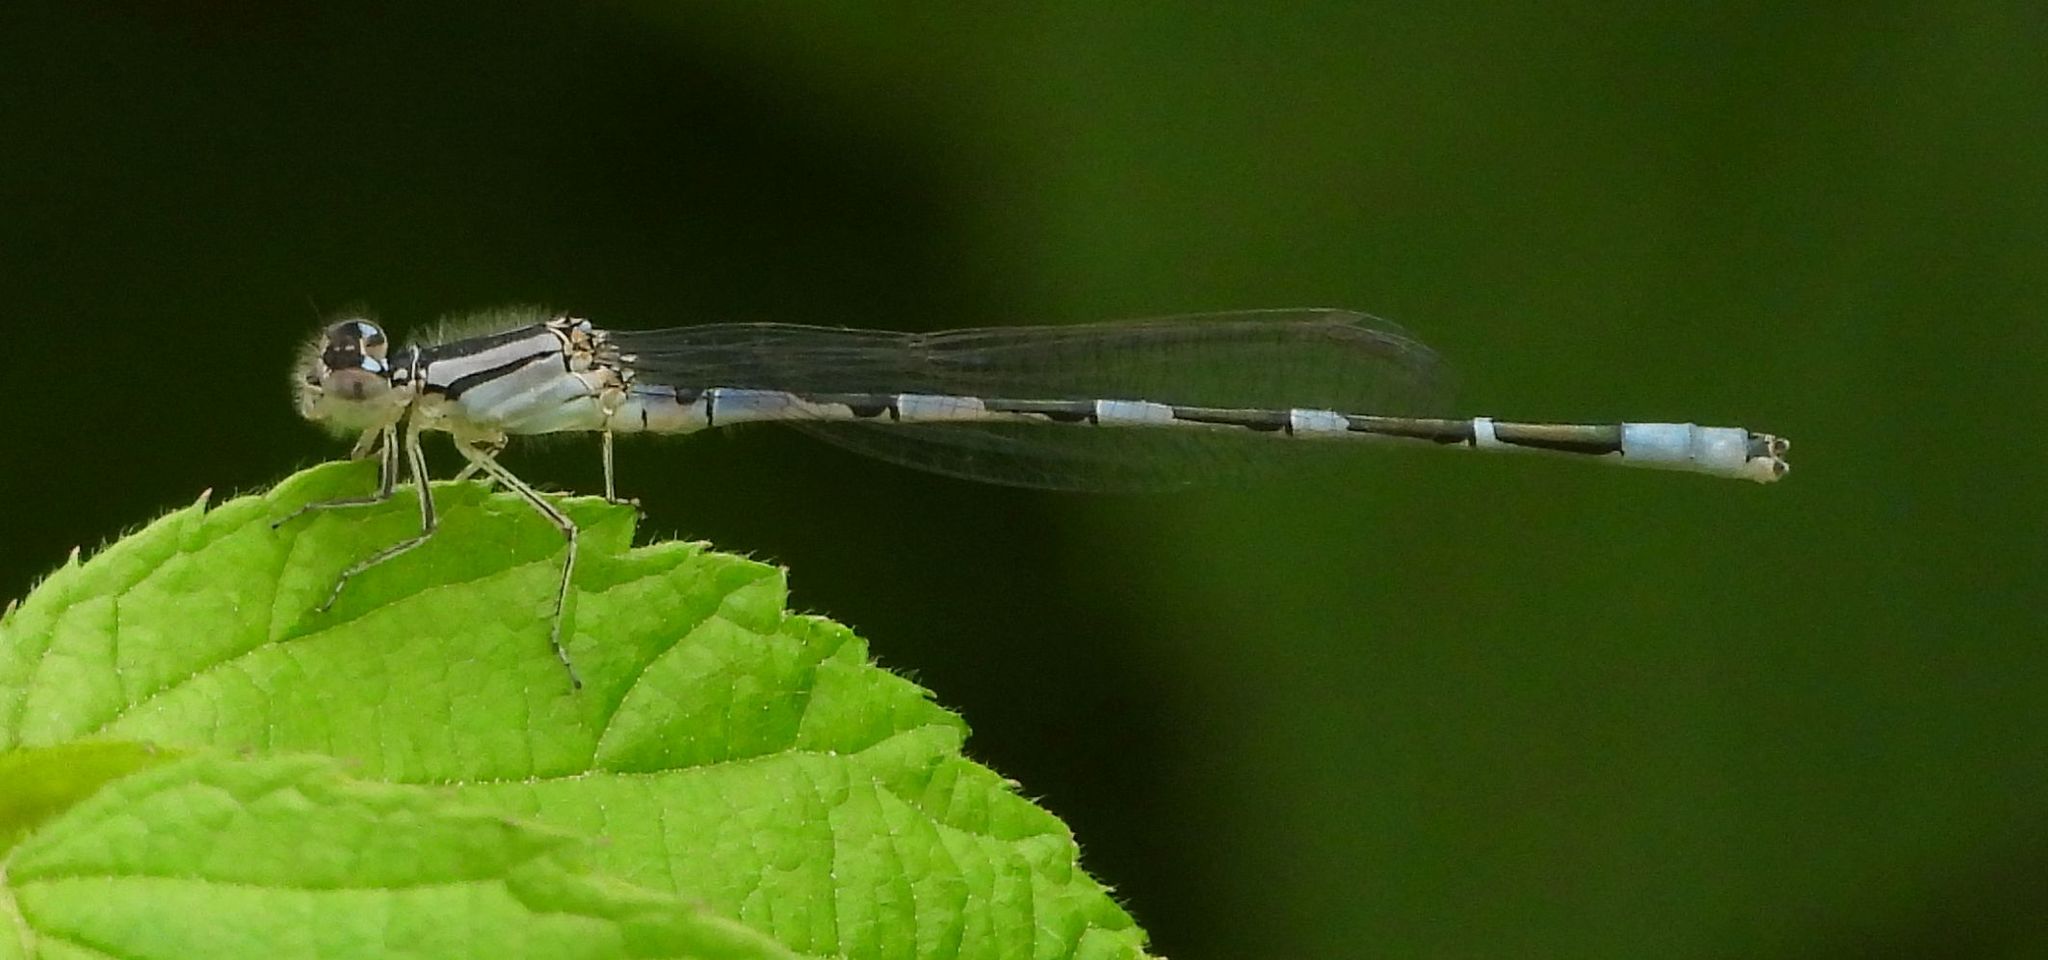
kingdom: Animalia
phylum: Arthropoda
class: Insecta
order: Odonata
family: Coenagrionidae
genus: Enallagma
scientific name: Enallagma carunculatum
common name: Tule bluet
